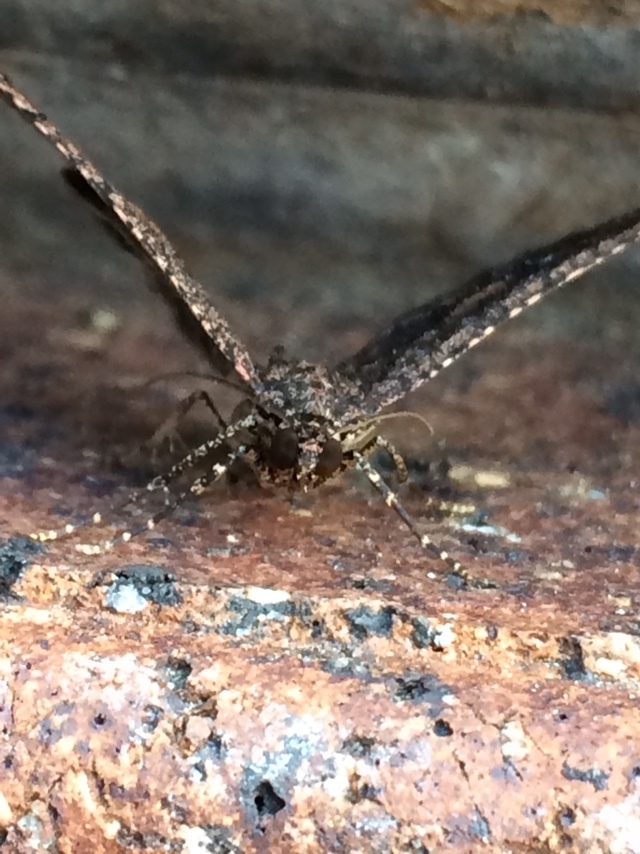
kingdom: Animalia
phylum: Arthropoda
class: Insecta
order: Lepidoptera
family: Geometridae
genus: Disclisioprocta
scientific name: Disclisioprocta stellata
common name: Somber carpet
